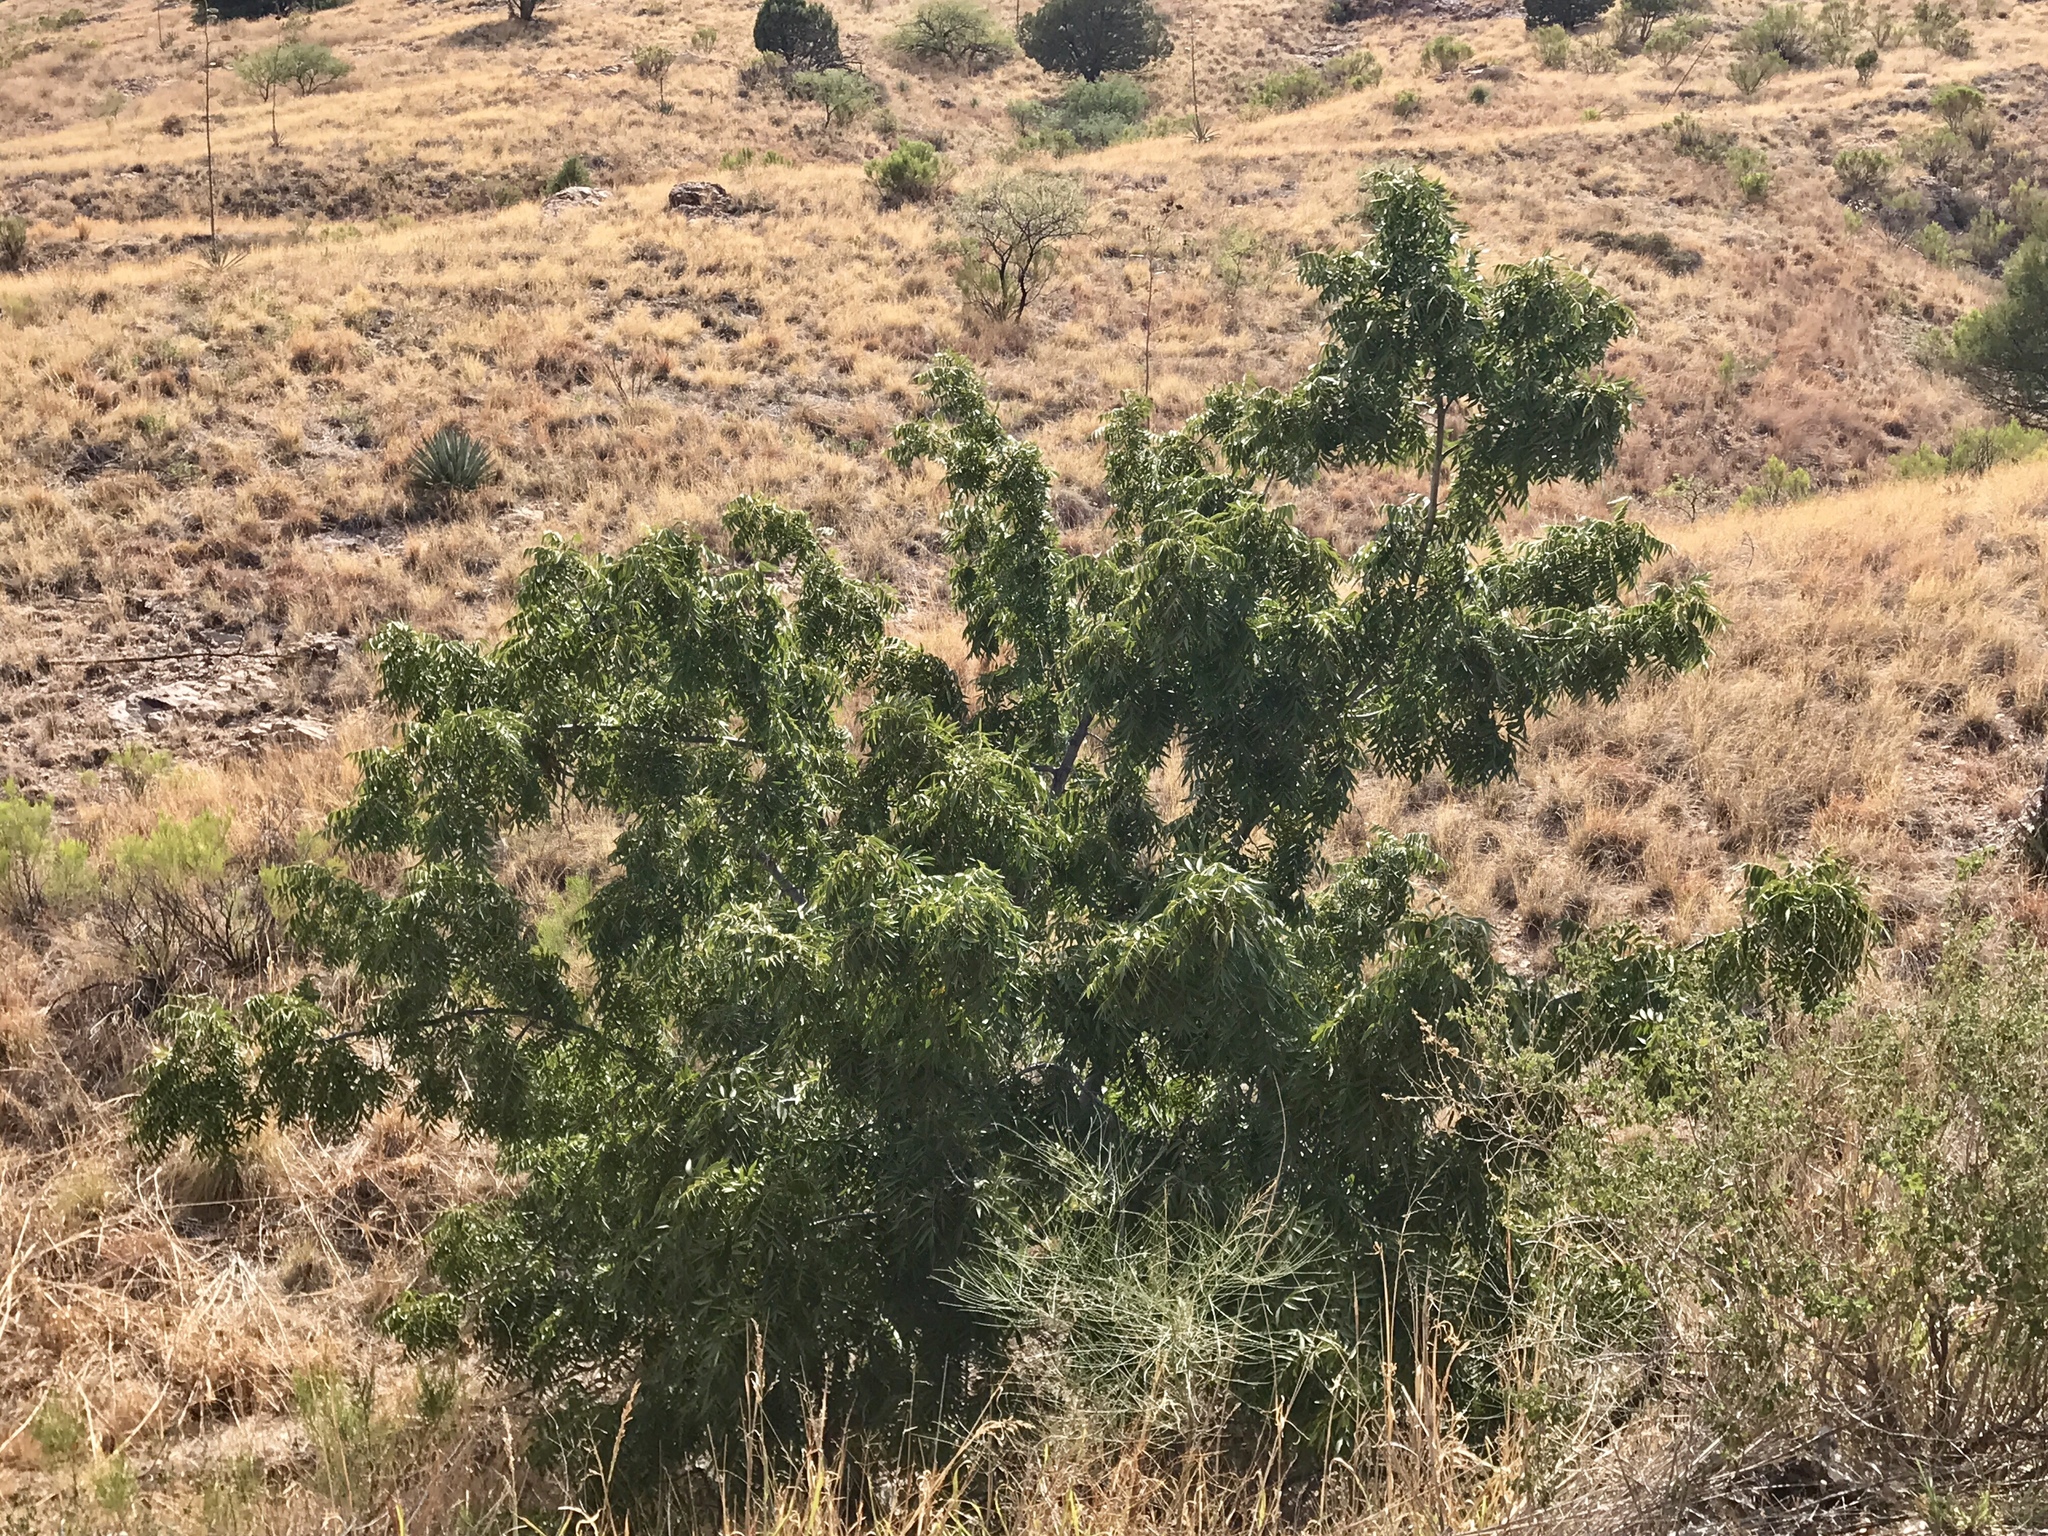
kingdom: Plantae
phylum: Tracheophyta
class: Magnoliopsida
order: Proteales
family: Platanaceae
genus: Platanus
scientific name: Platanus wrightii
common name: Arizona sycamore
